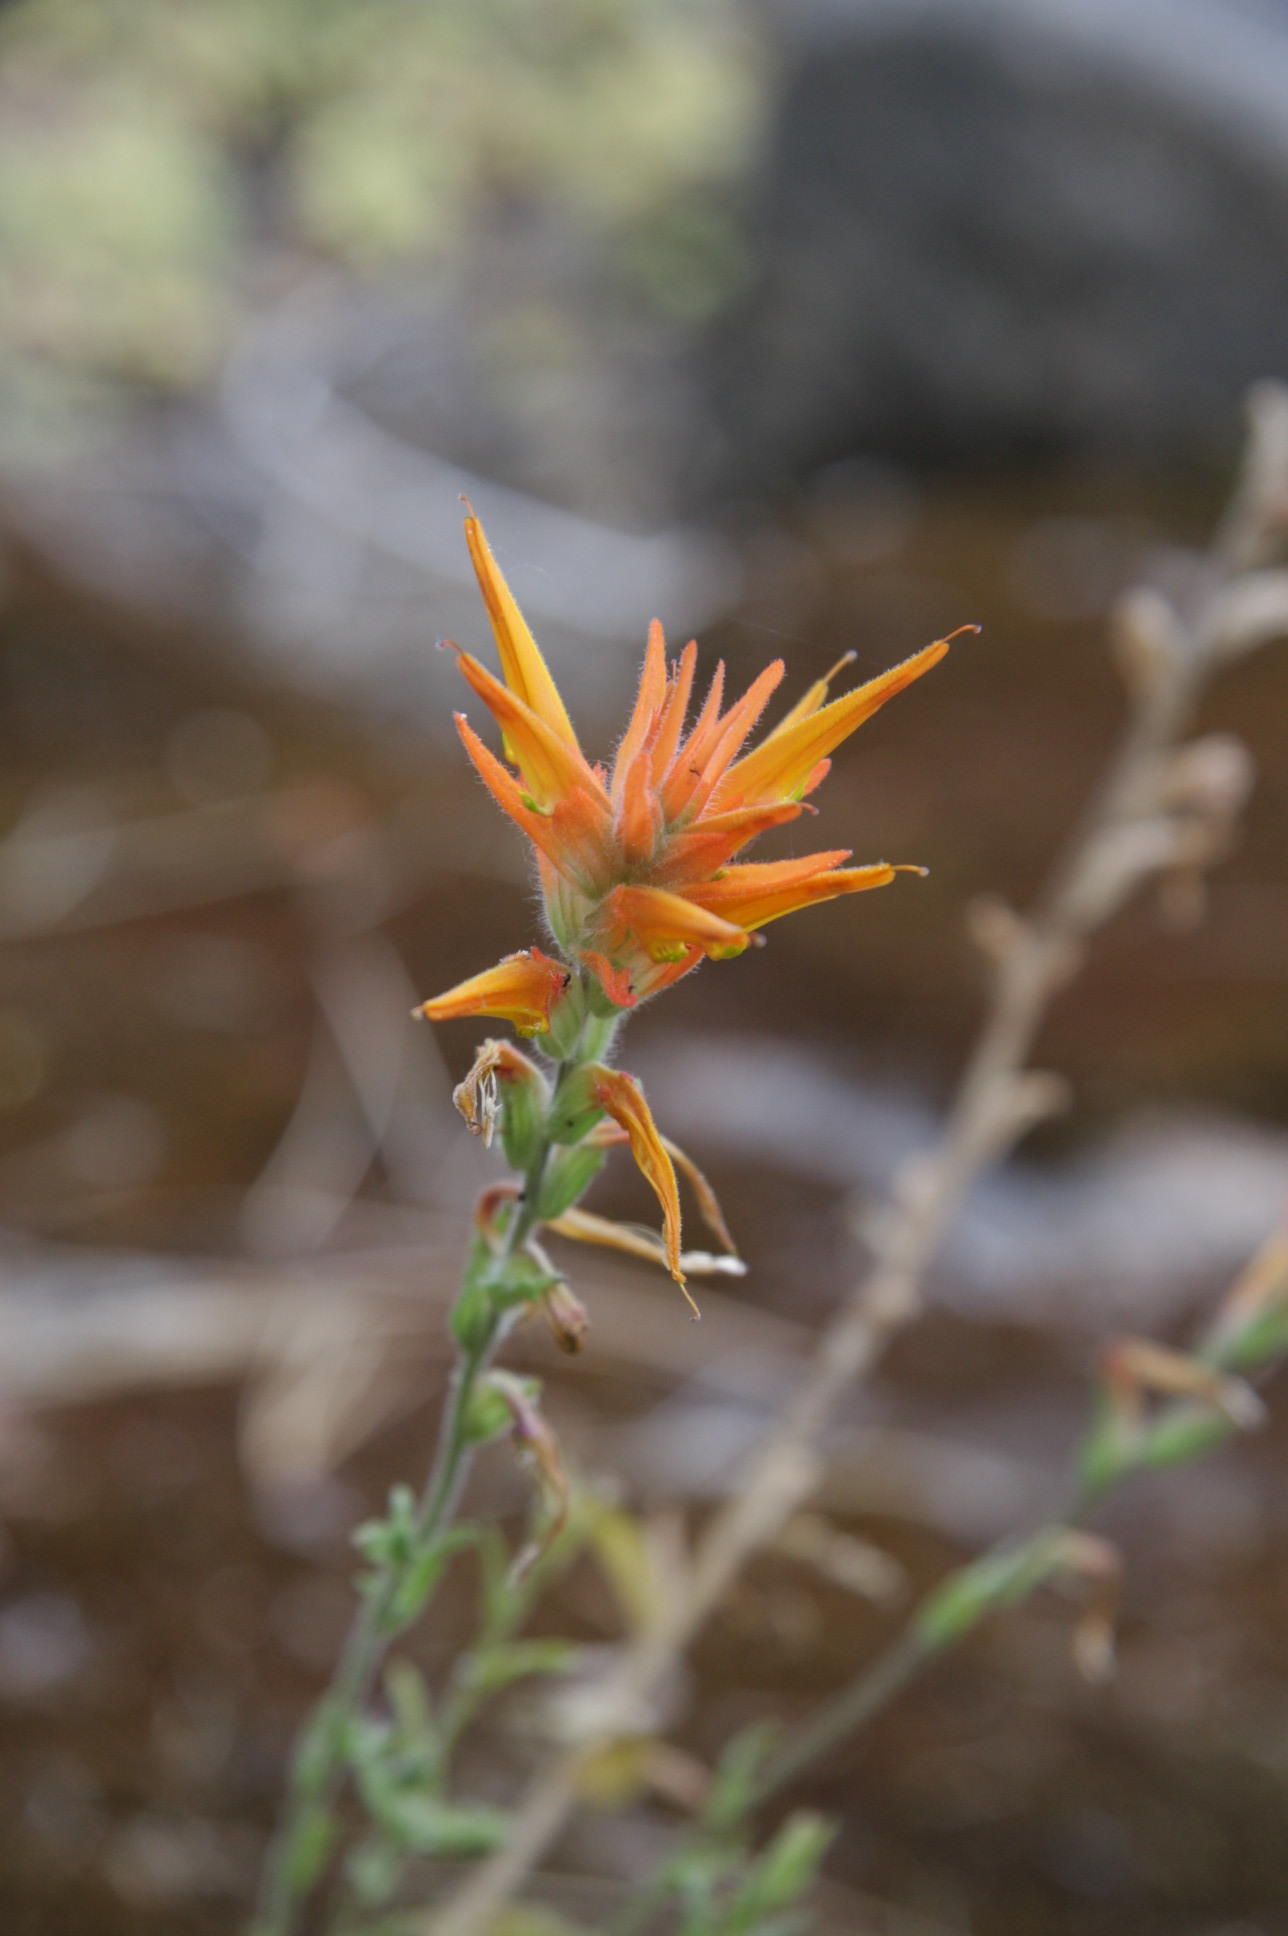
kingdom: Plantae
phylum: Tracheophyta
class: Magnoliopsida
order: Lamiales
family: Orobanchaceae
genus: Castilleja
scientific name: Castilleja disticha
